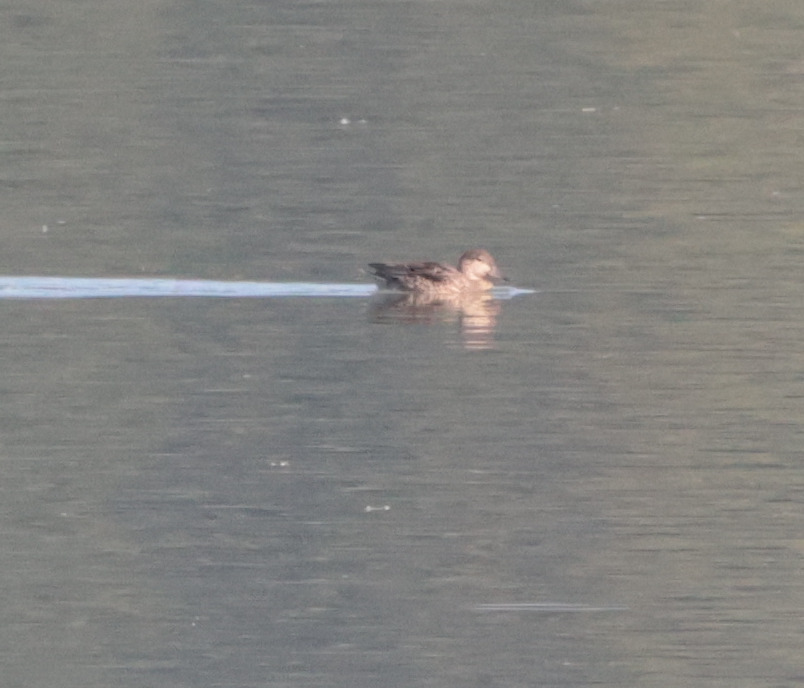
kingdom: Animalia
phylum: Chordata
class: Aves
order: Anseriformes
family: Anatidae
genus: Anas
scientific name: Anas crecca
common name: Eurasian teal
